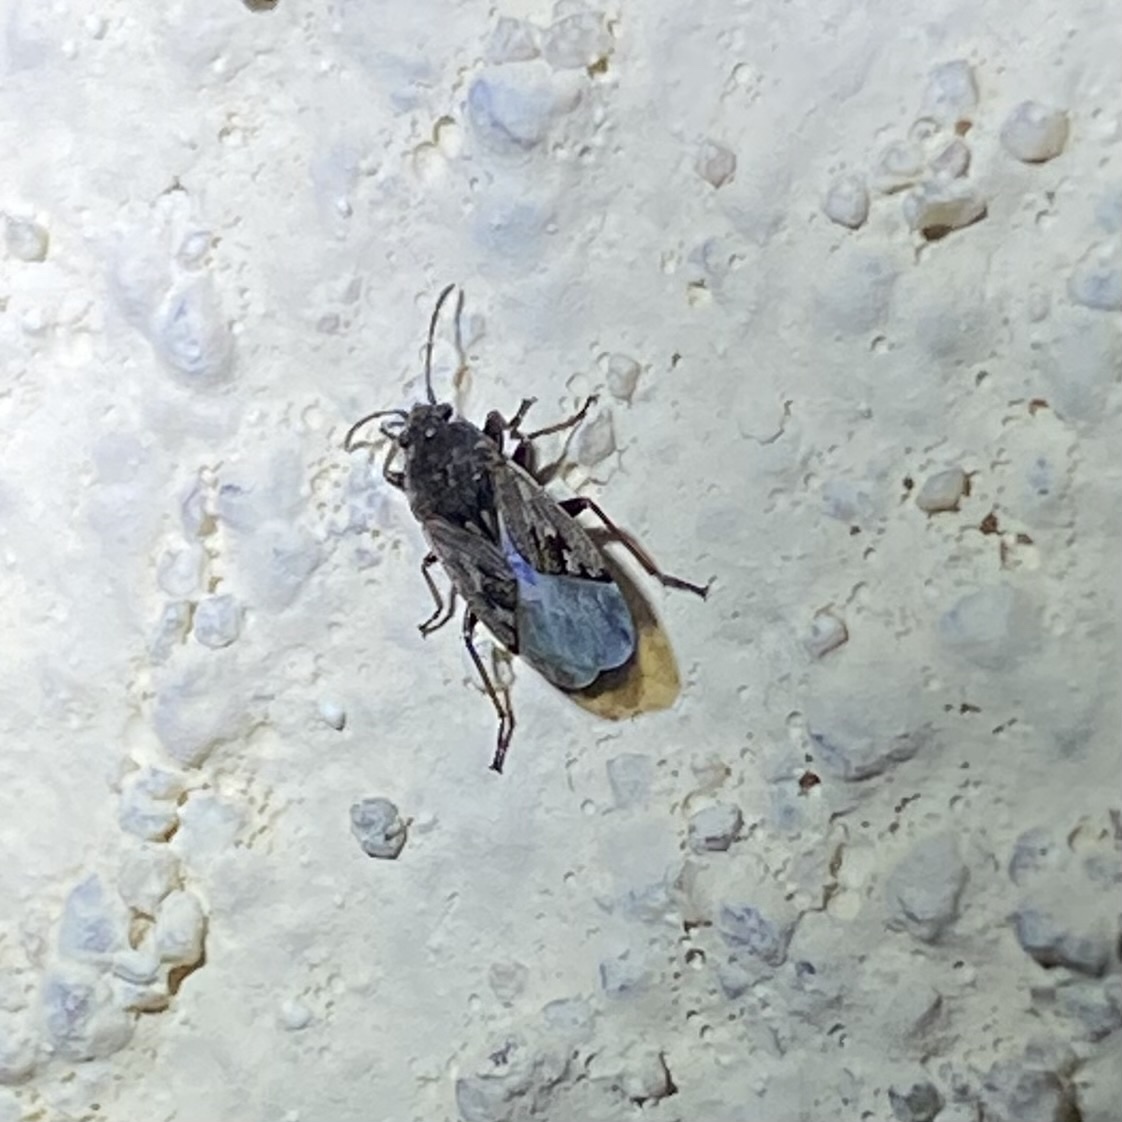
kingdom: Animalia
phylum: Arthropoda
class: Insecta
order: Hemiptera
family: Rhyparochromidae
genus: Sphragisticus
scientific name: Sphragisticus nebulosus
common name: Dirt-colored seed bug
